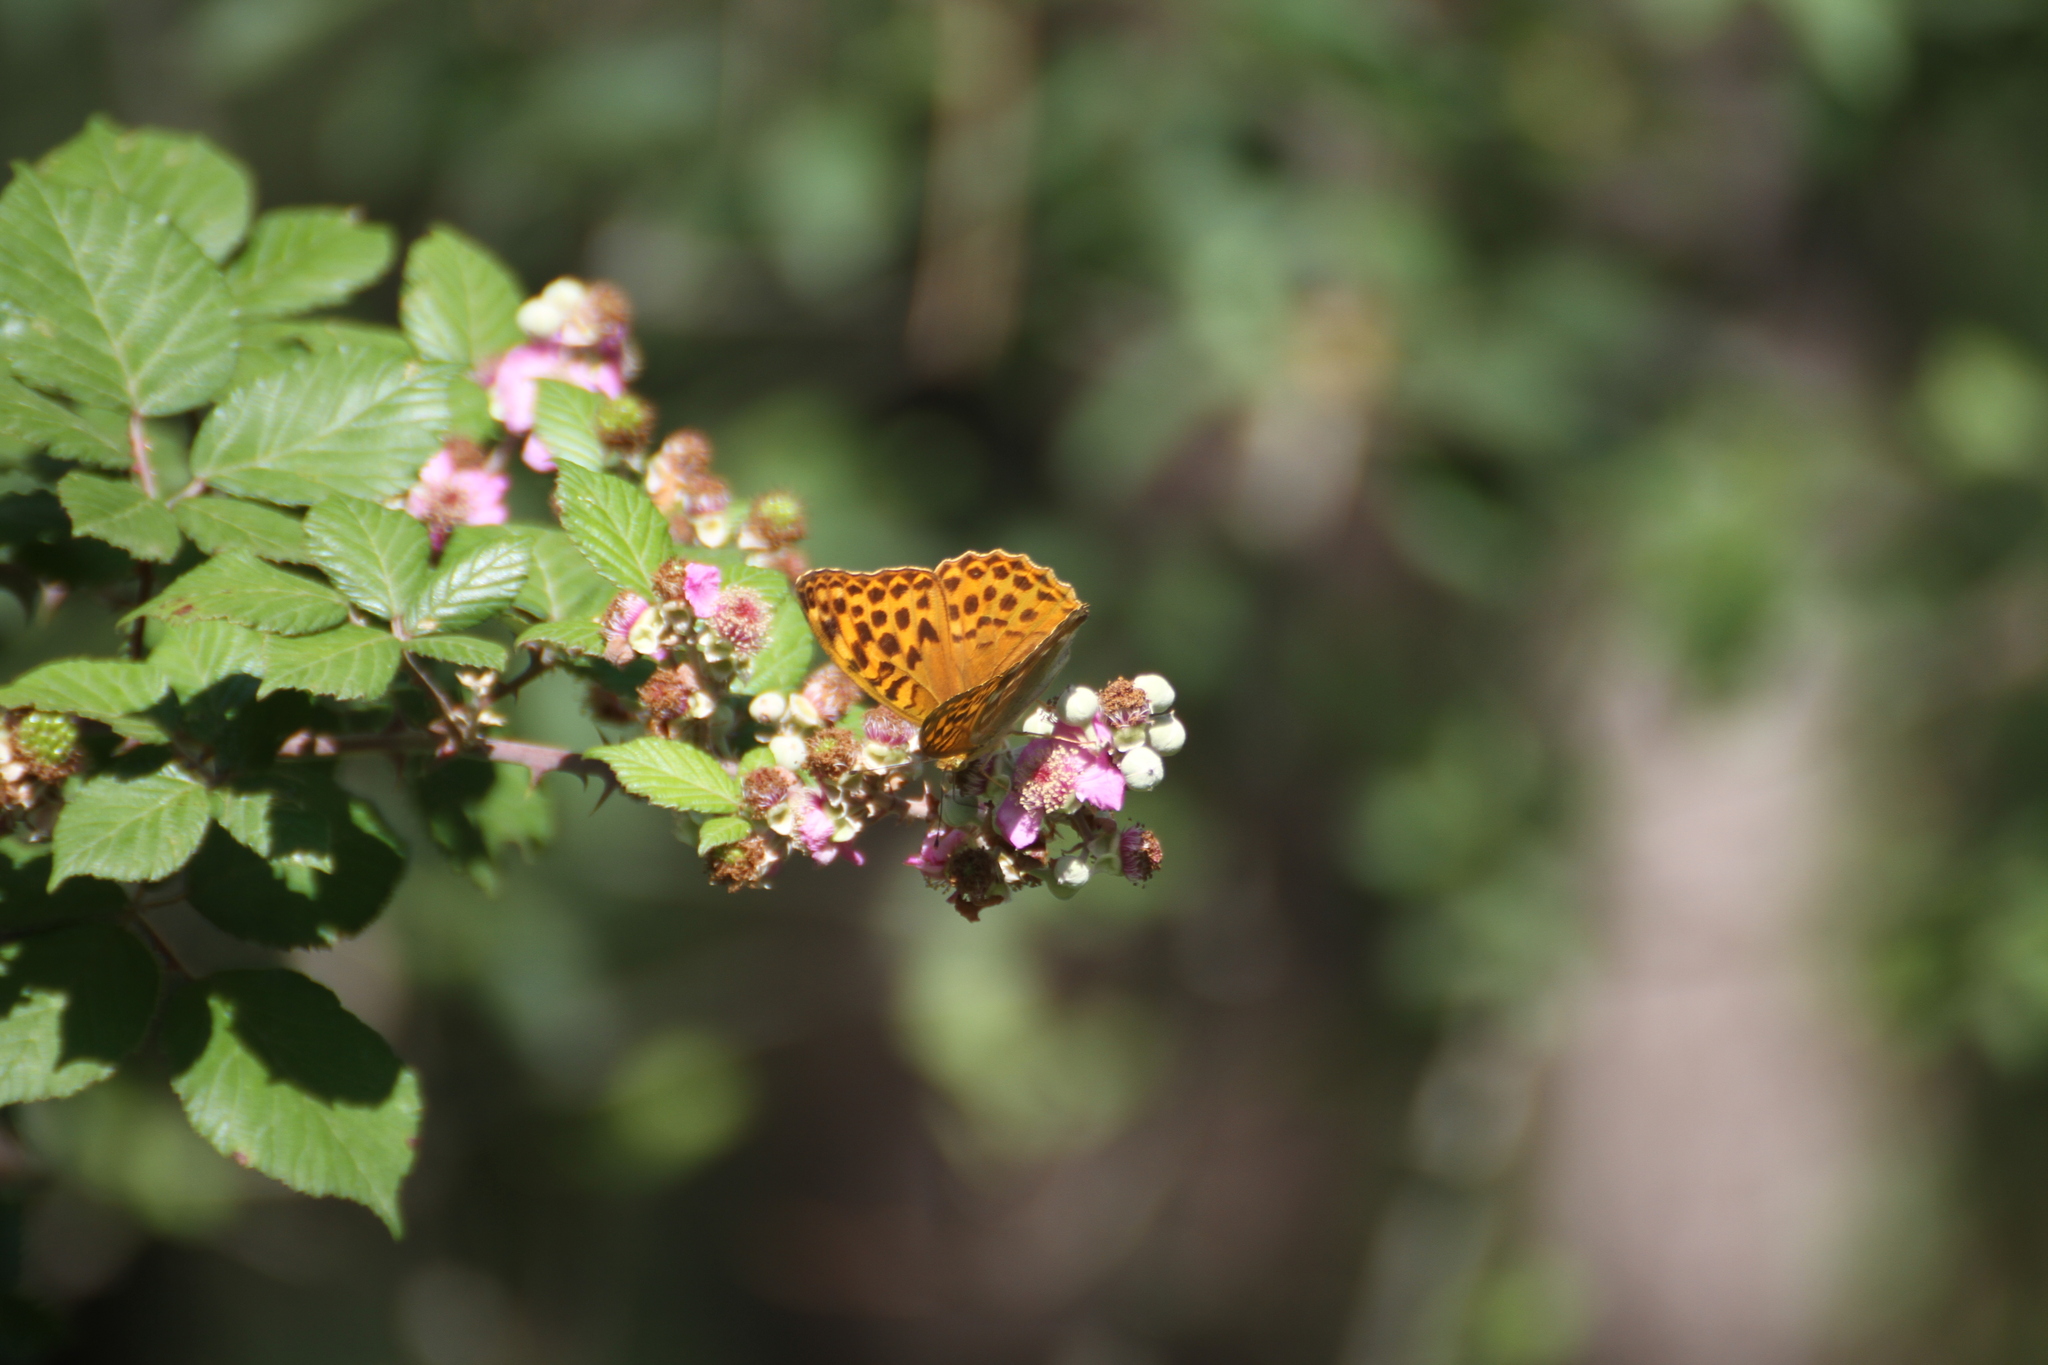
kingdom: Animalia
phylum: Arthropoda
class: Insecta
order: Lepidoptera
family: Nymphalidae
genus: Argynnis
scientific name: Argynnis paphia
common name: Silver-washed fritillary
